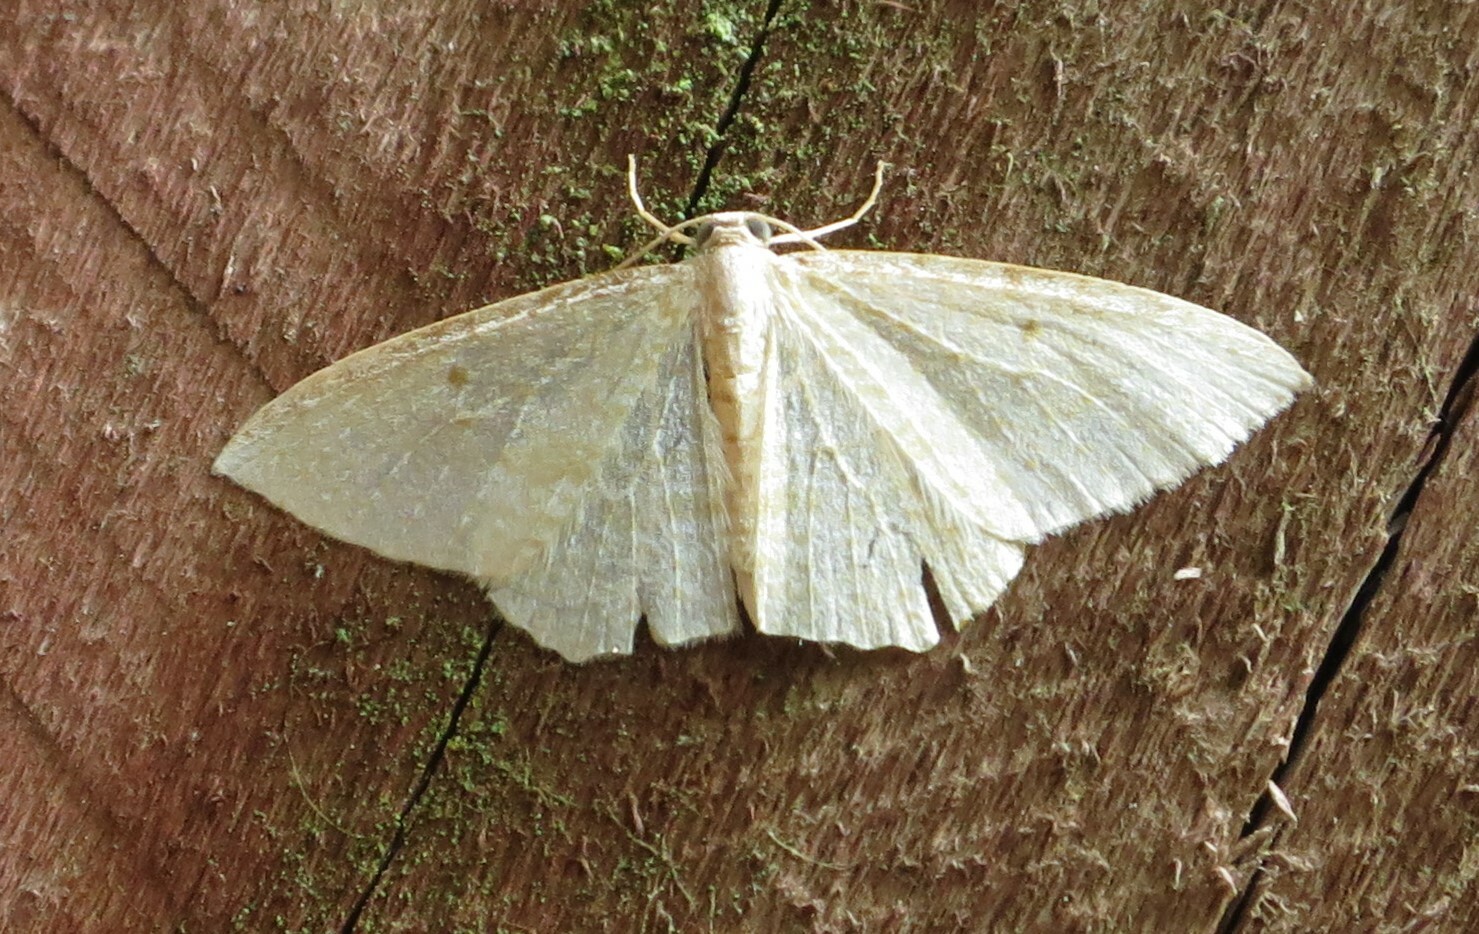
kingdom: Animalia
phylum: Arthropoda
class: Insecta
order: Lepidoptera
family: Geometridae
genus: Poecilasthena
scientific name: Poecilasthena pulchraria
